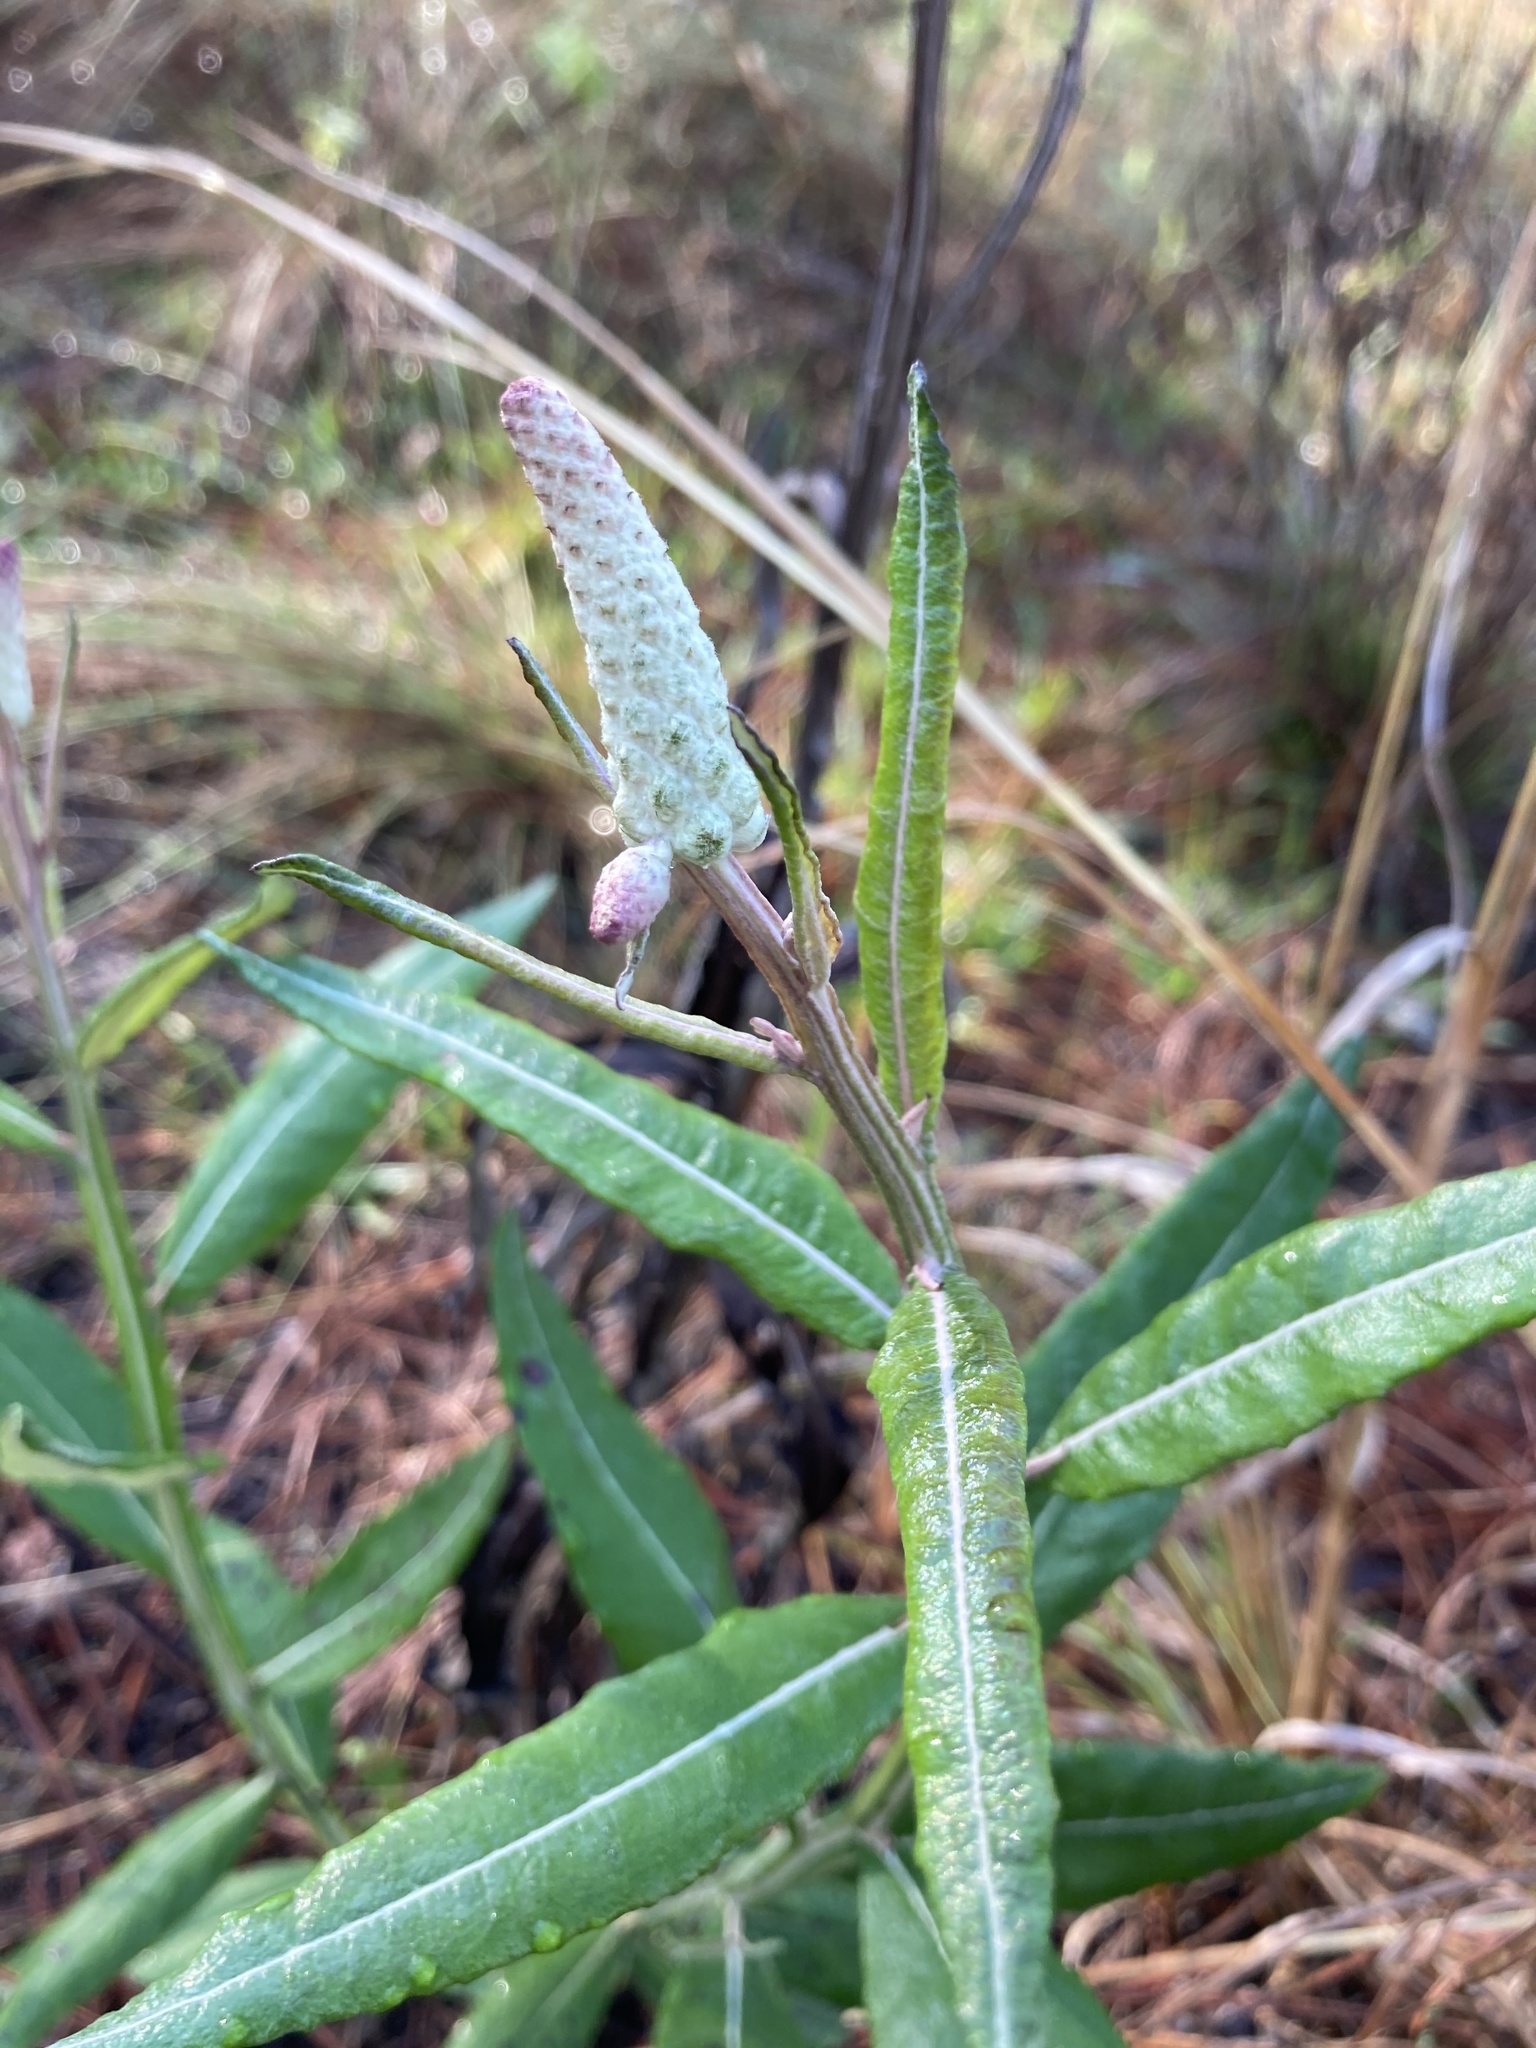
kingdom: Plantae
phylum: Tracheophyta
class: Magnoliopsida
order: Asterales
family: Asteraceae
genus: Pterocaulon
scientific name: Pterocaulon pycnostachyum
